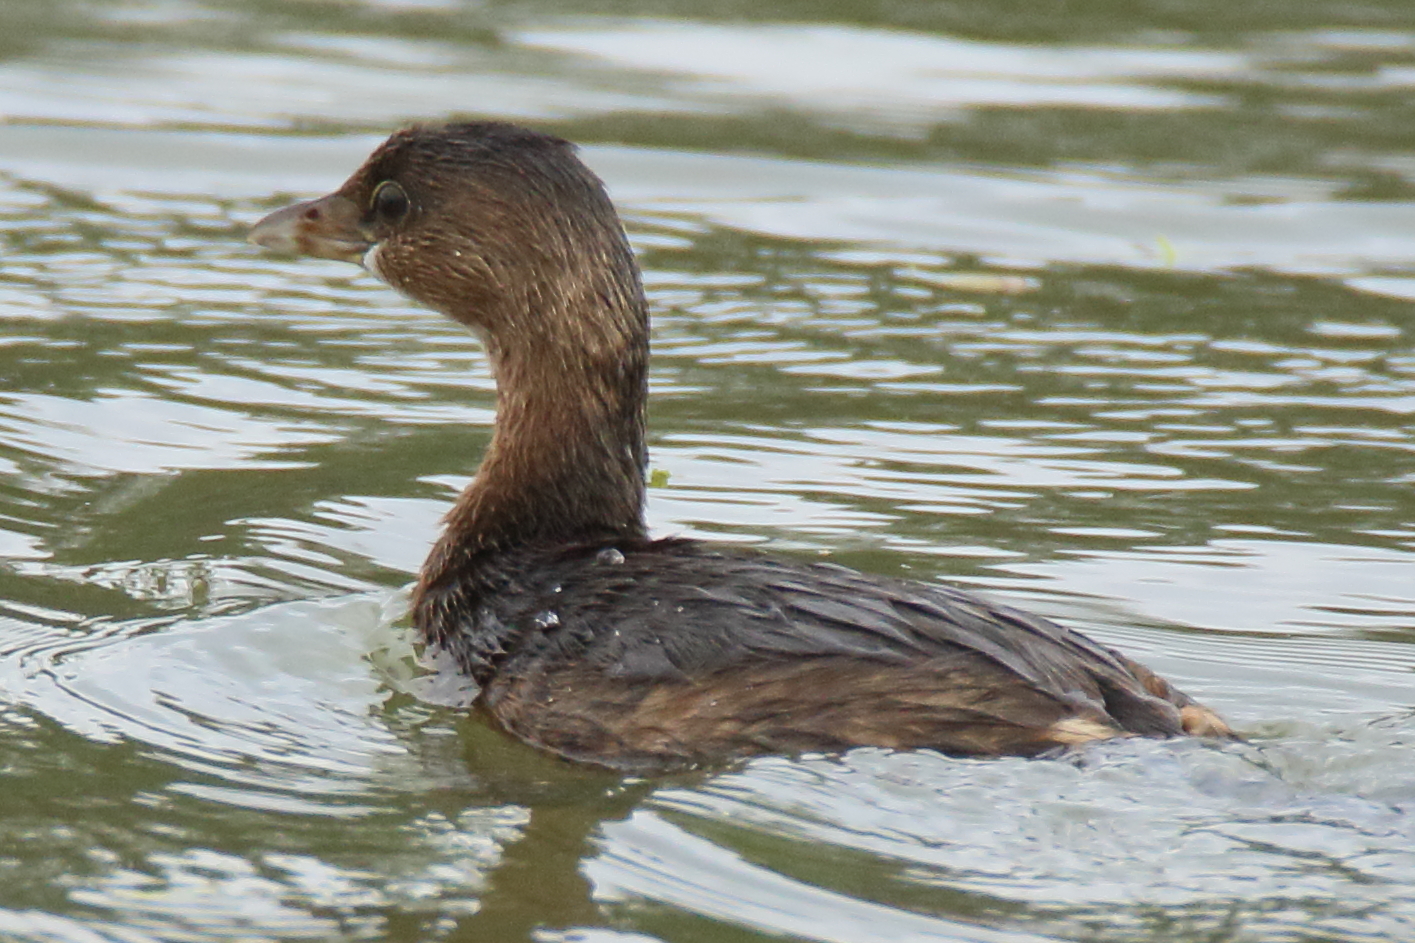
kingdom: Animalia
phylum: Chordata
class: Aves
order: Podicipediformes
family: Podicipedidae
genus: Podilymbus
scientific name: Podilymbus podiceps
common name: Pied-billed grebe
